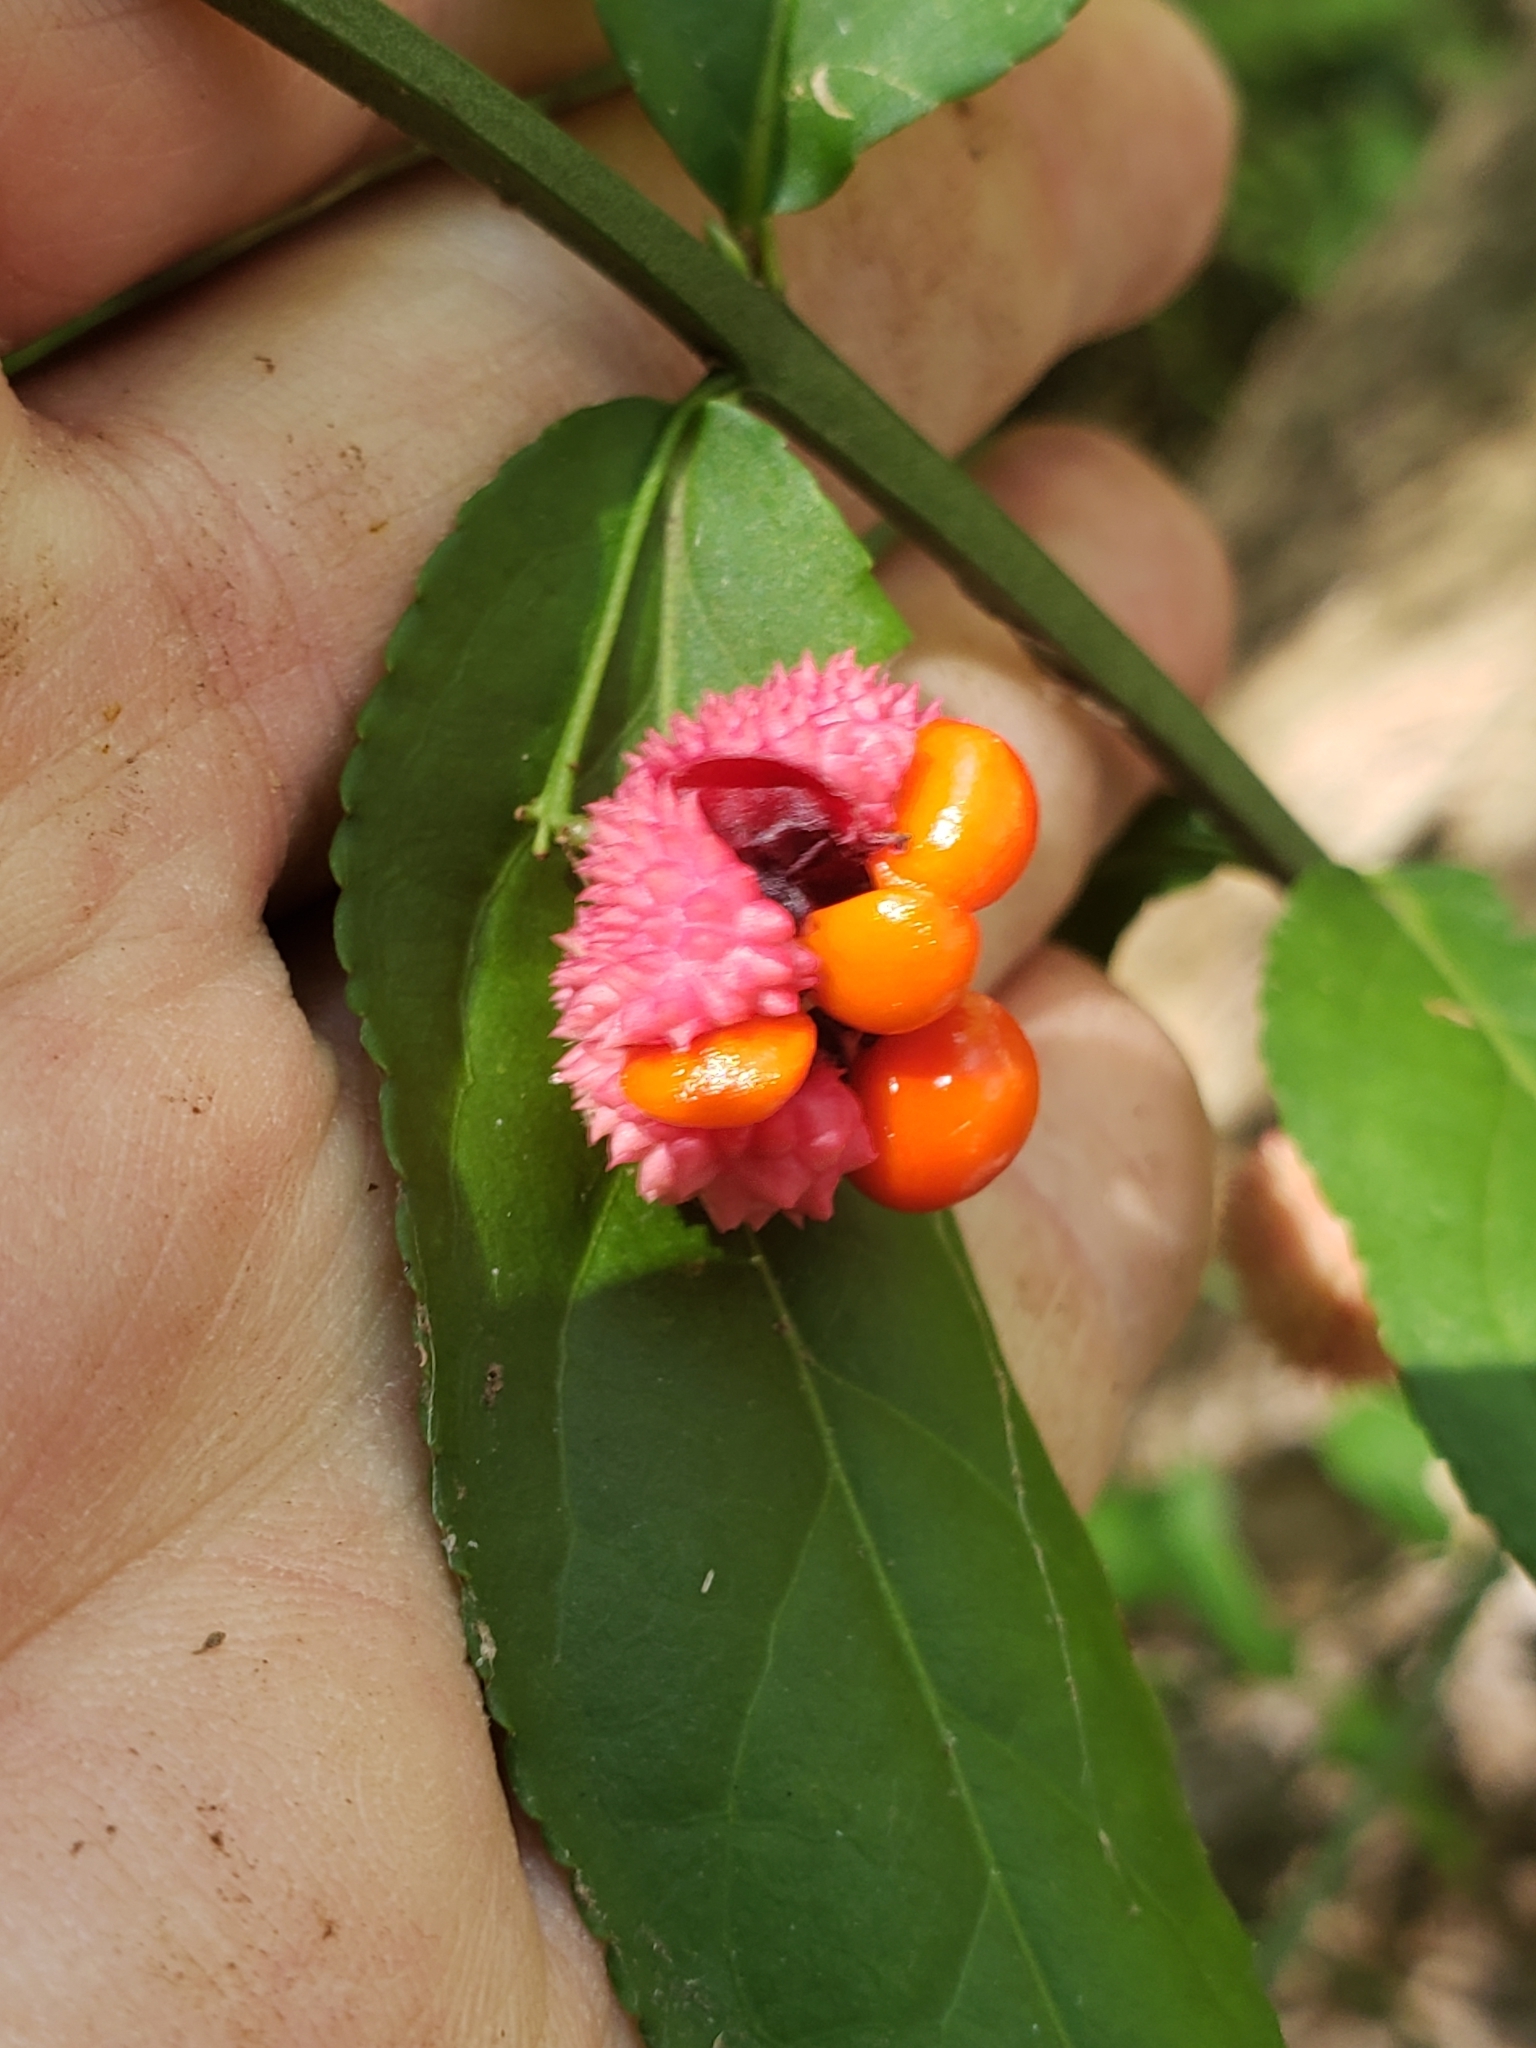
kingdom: Plantae
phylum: Tracheophyta
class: Magnoliopsida
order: Celastrales
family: Celastraceae
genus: Euonymus
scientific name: Euonymus americanus
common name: Bursting-heart
